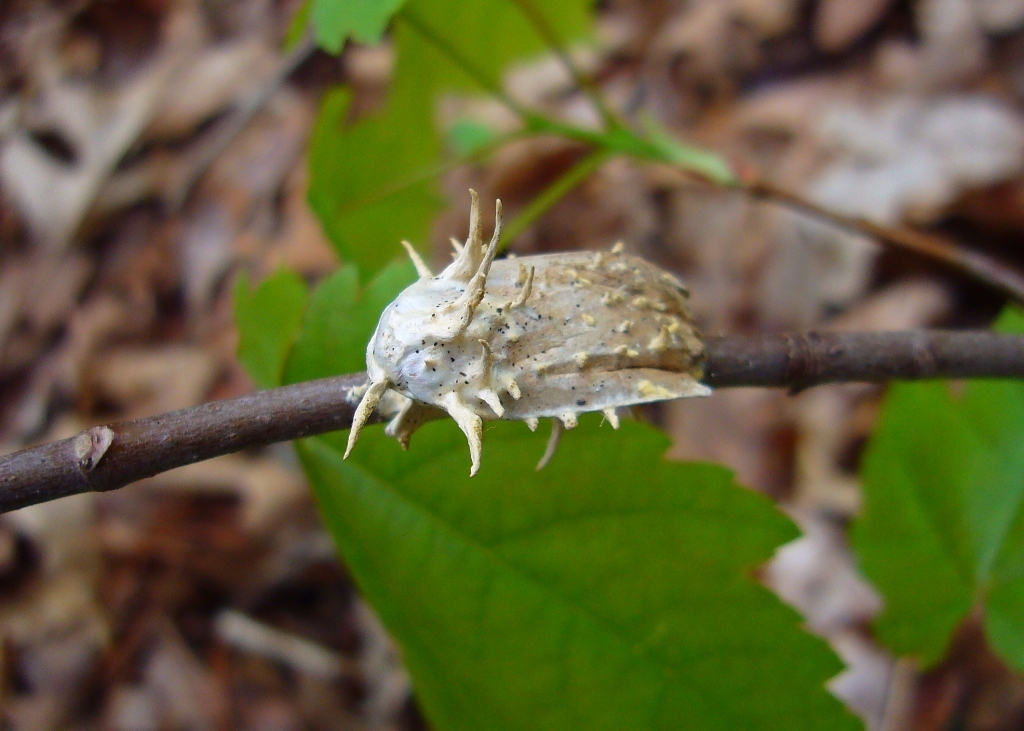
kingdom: Fungi
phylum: Ascomycota
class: Sordariomycetes
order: Hypocreales
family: Cordycipitaceae
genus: Akanthomyces
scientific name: Akanthomyces aculeatus
